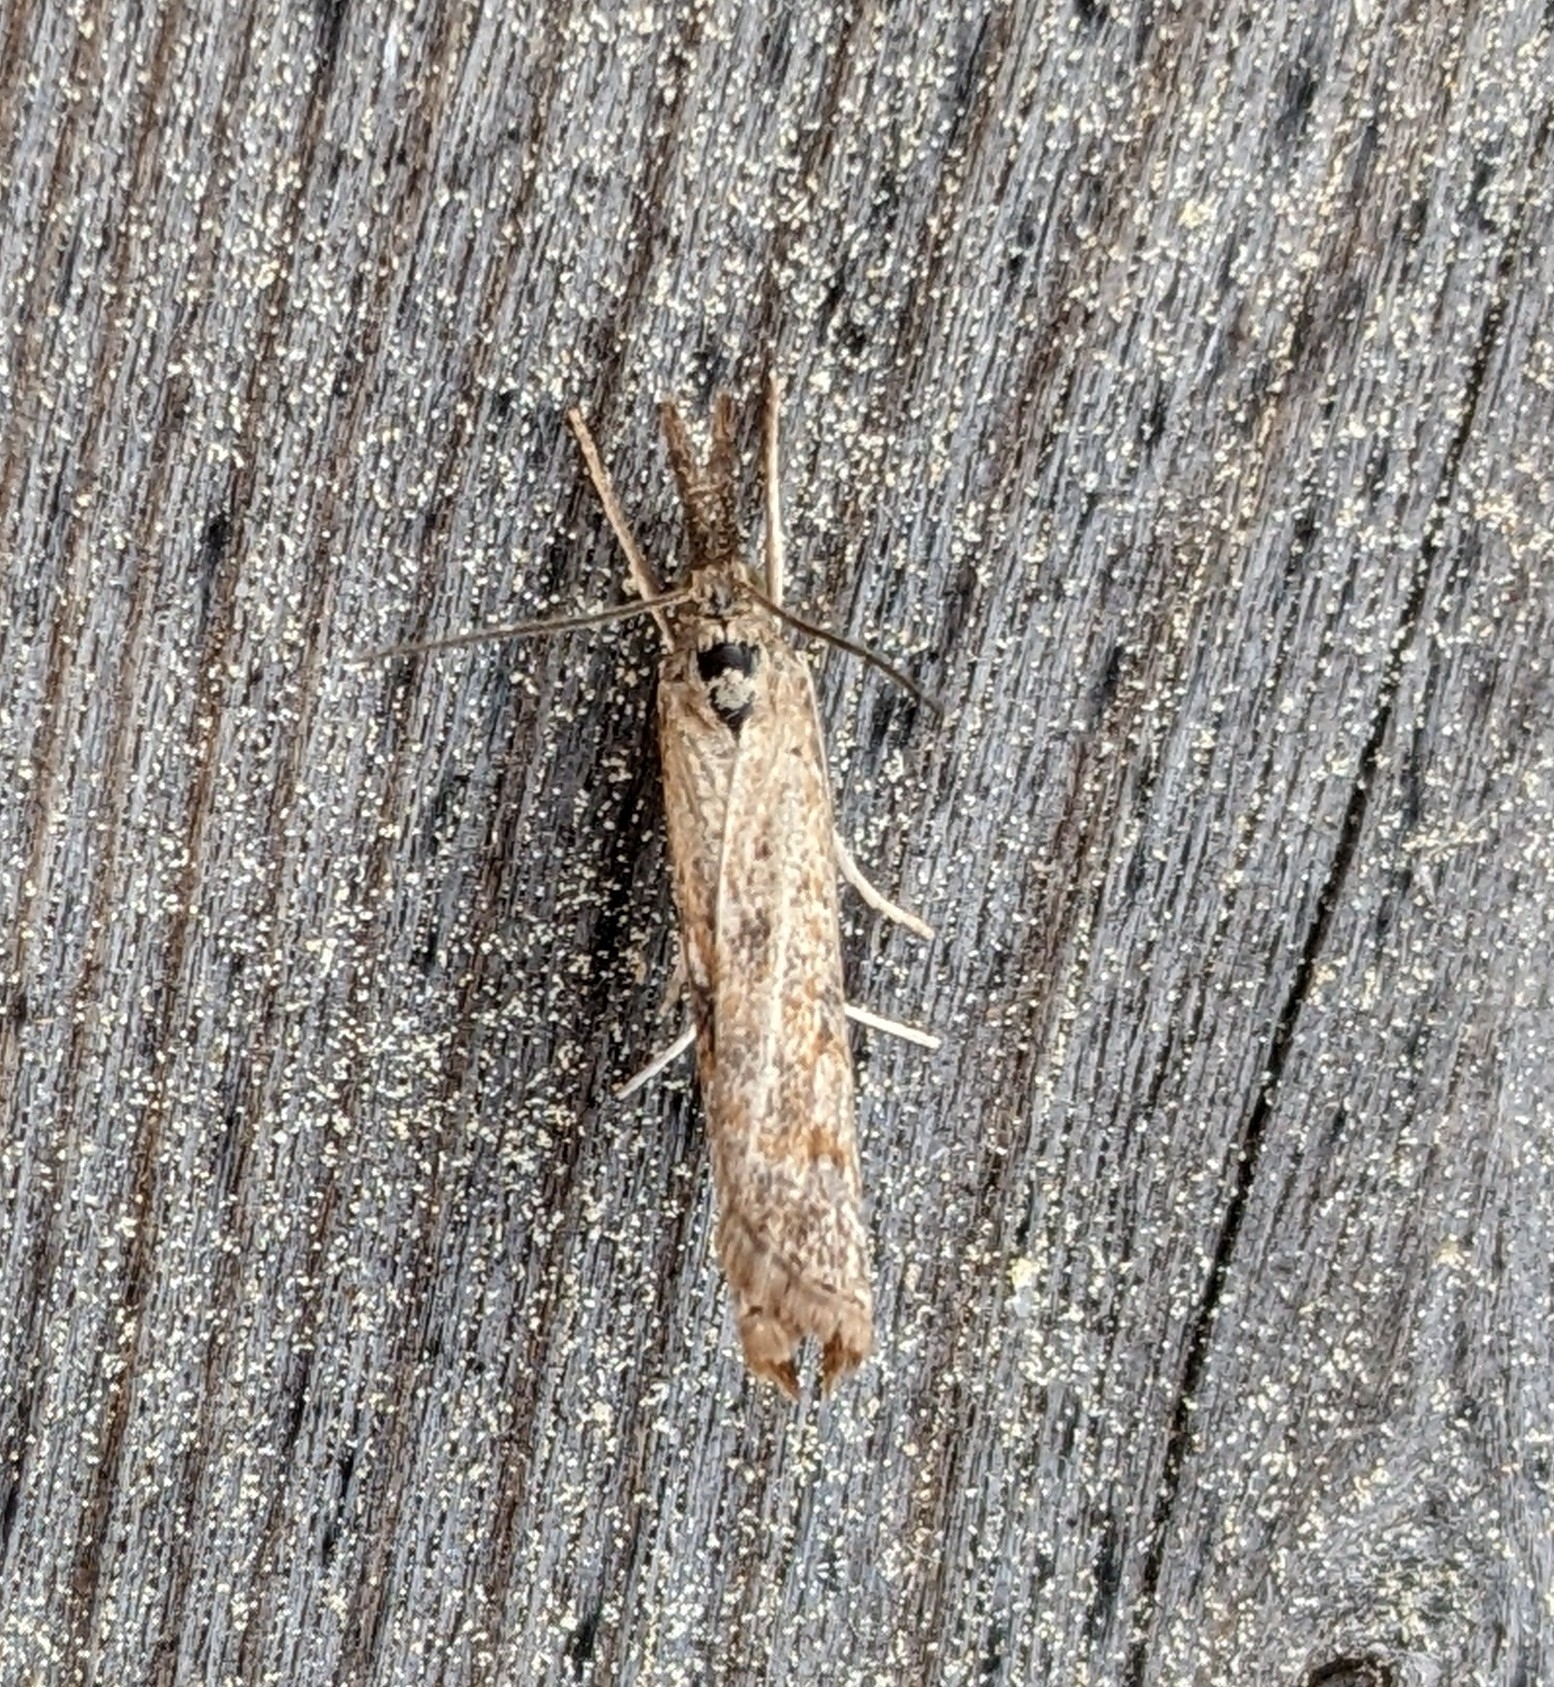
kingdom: Animalia
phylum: Arthropoda
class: Insecta
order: Lepidoptera
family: Crambidae
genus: Neodactria
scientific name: Neodactria luteolellus
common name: Mottled grass-veneer
